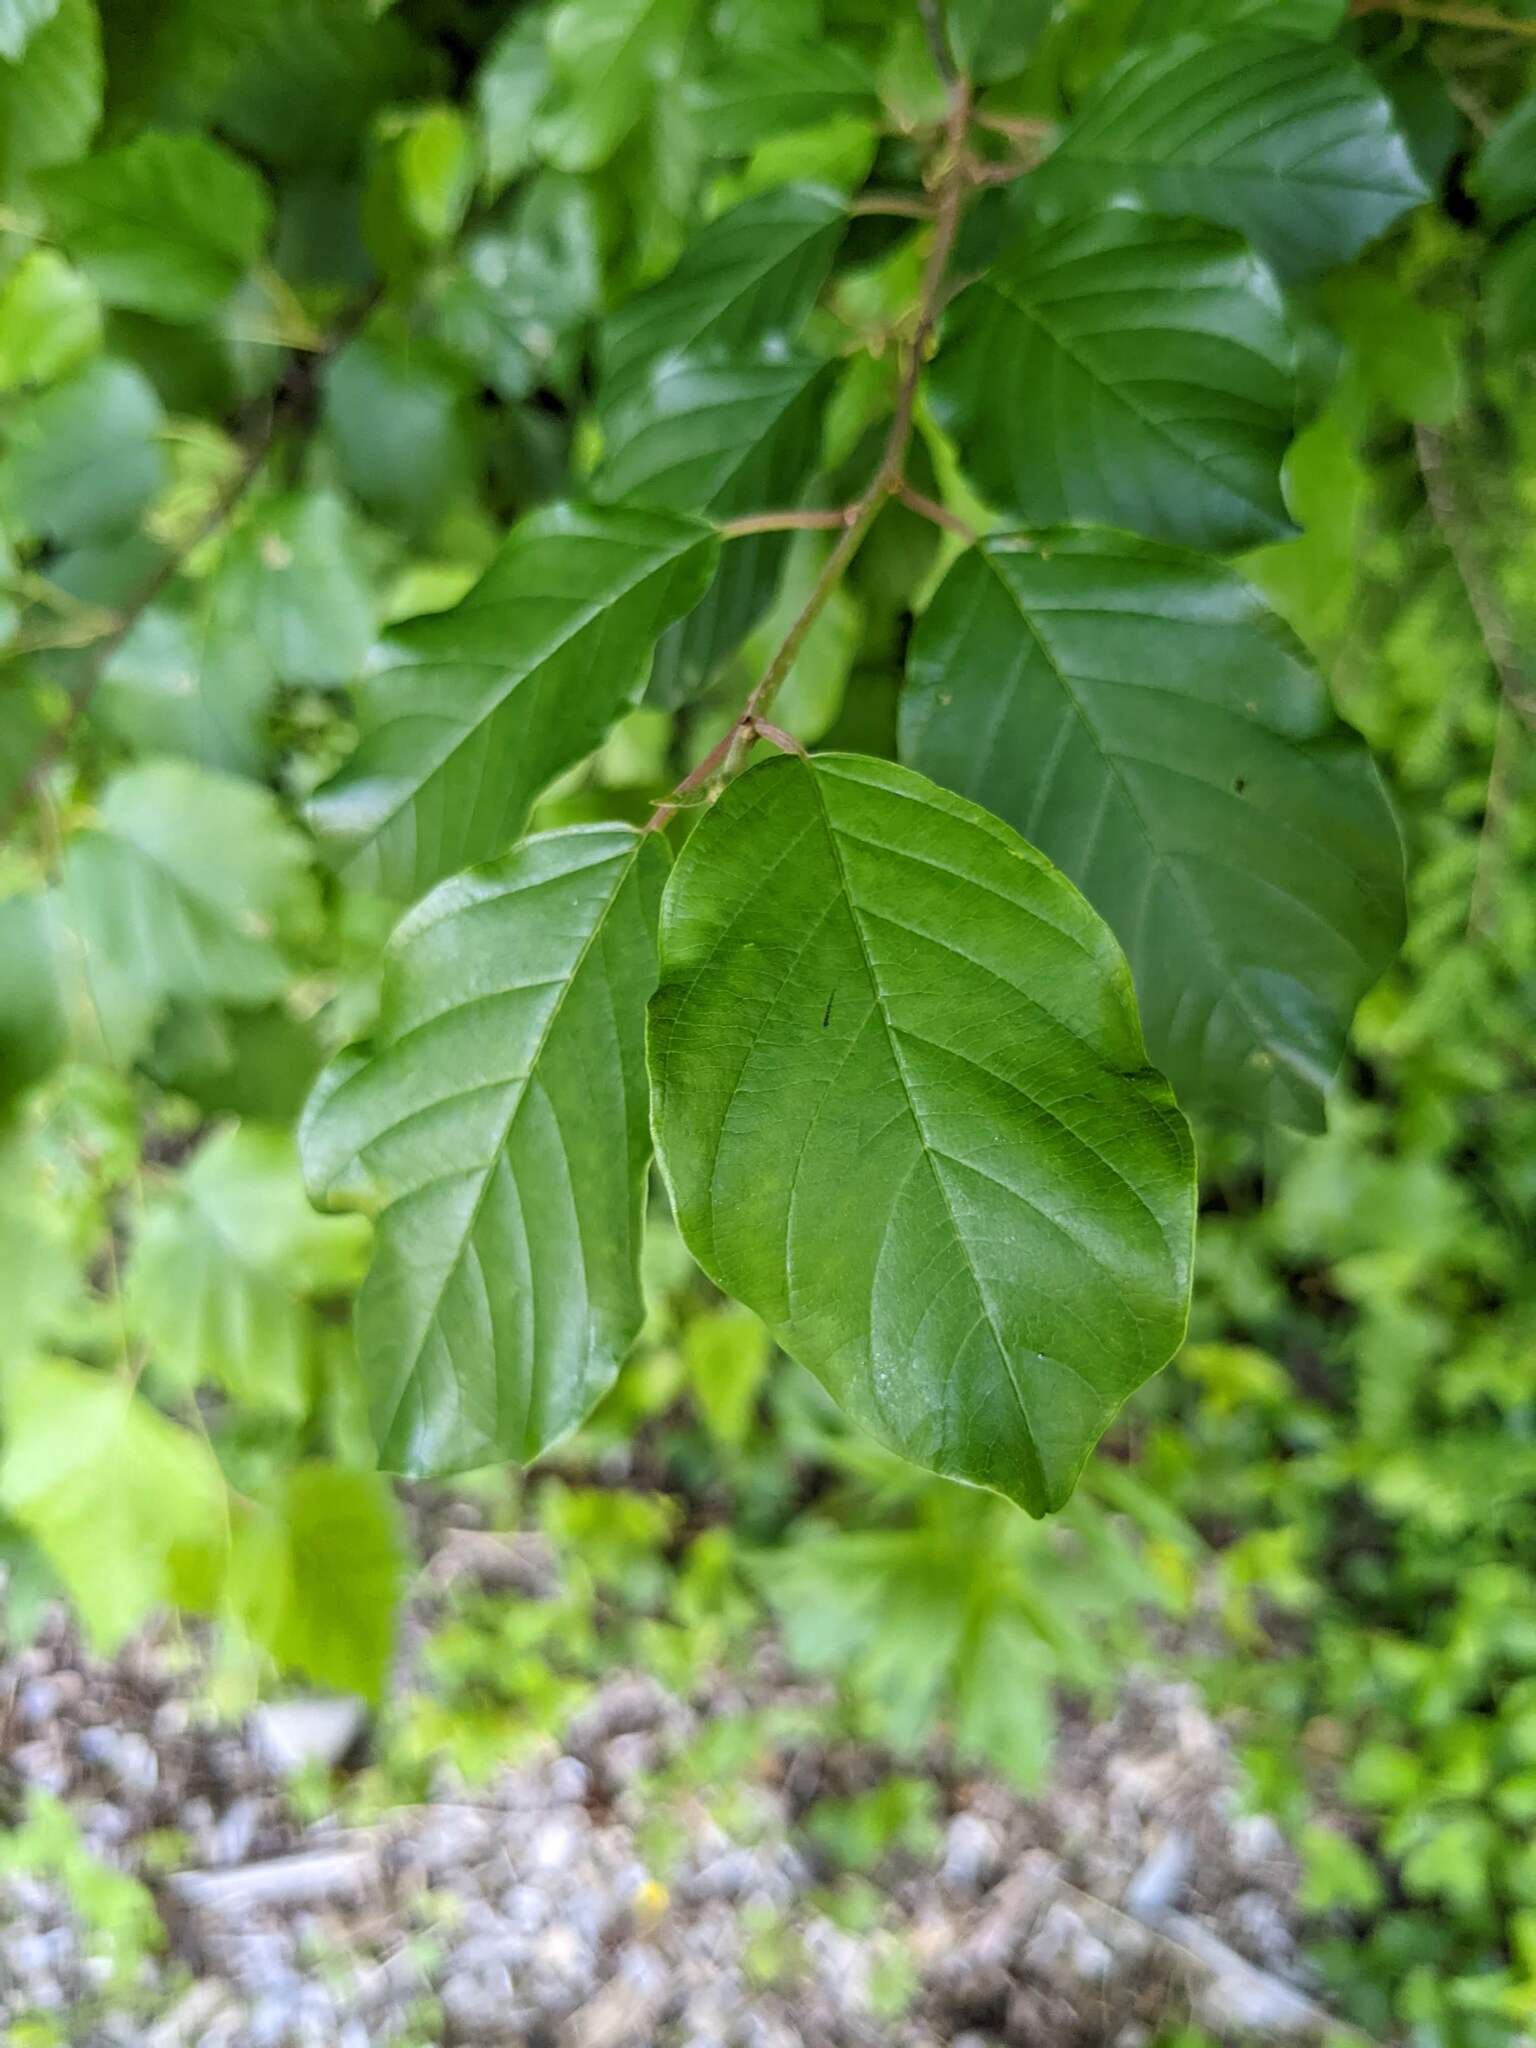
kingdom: Plantae
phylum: Tracheophyta
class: Magnoliopsida
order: Rosales
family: Rhamnaceae
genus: Frangula
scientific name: Frangula alnus
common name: Alder buckthorn
